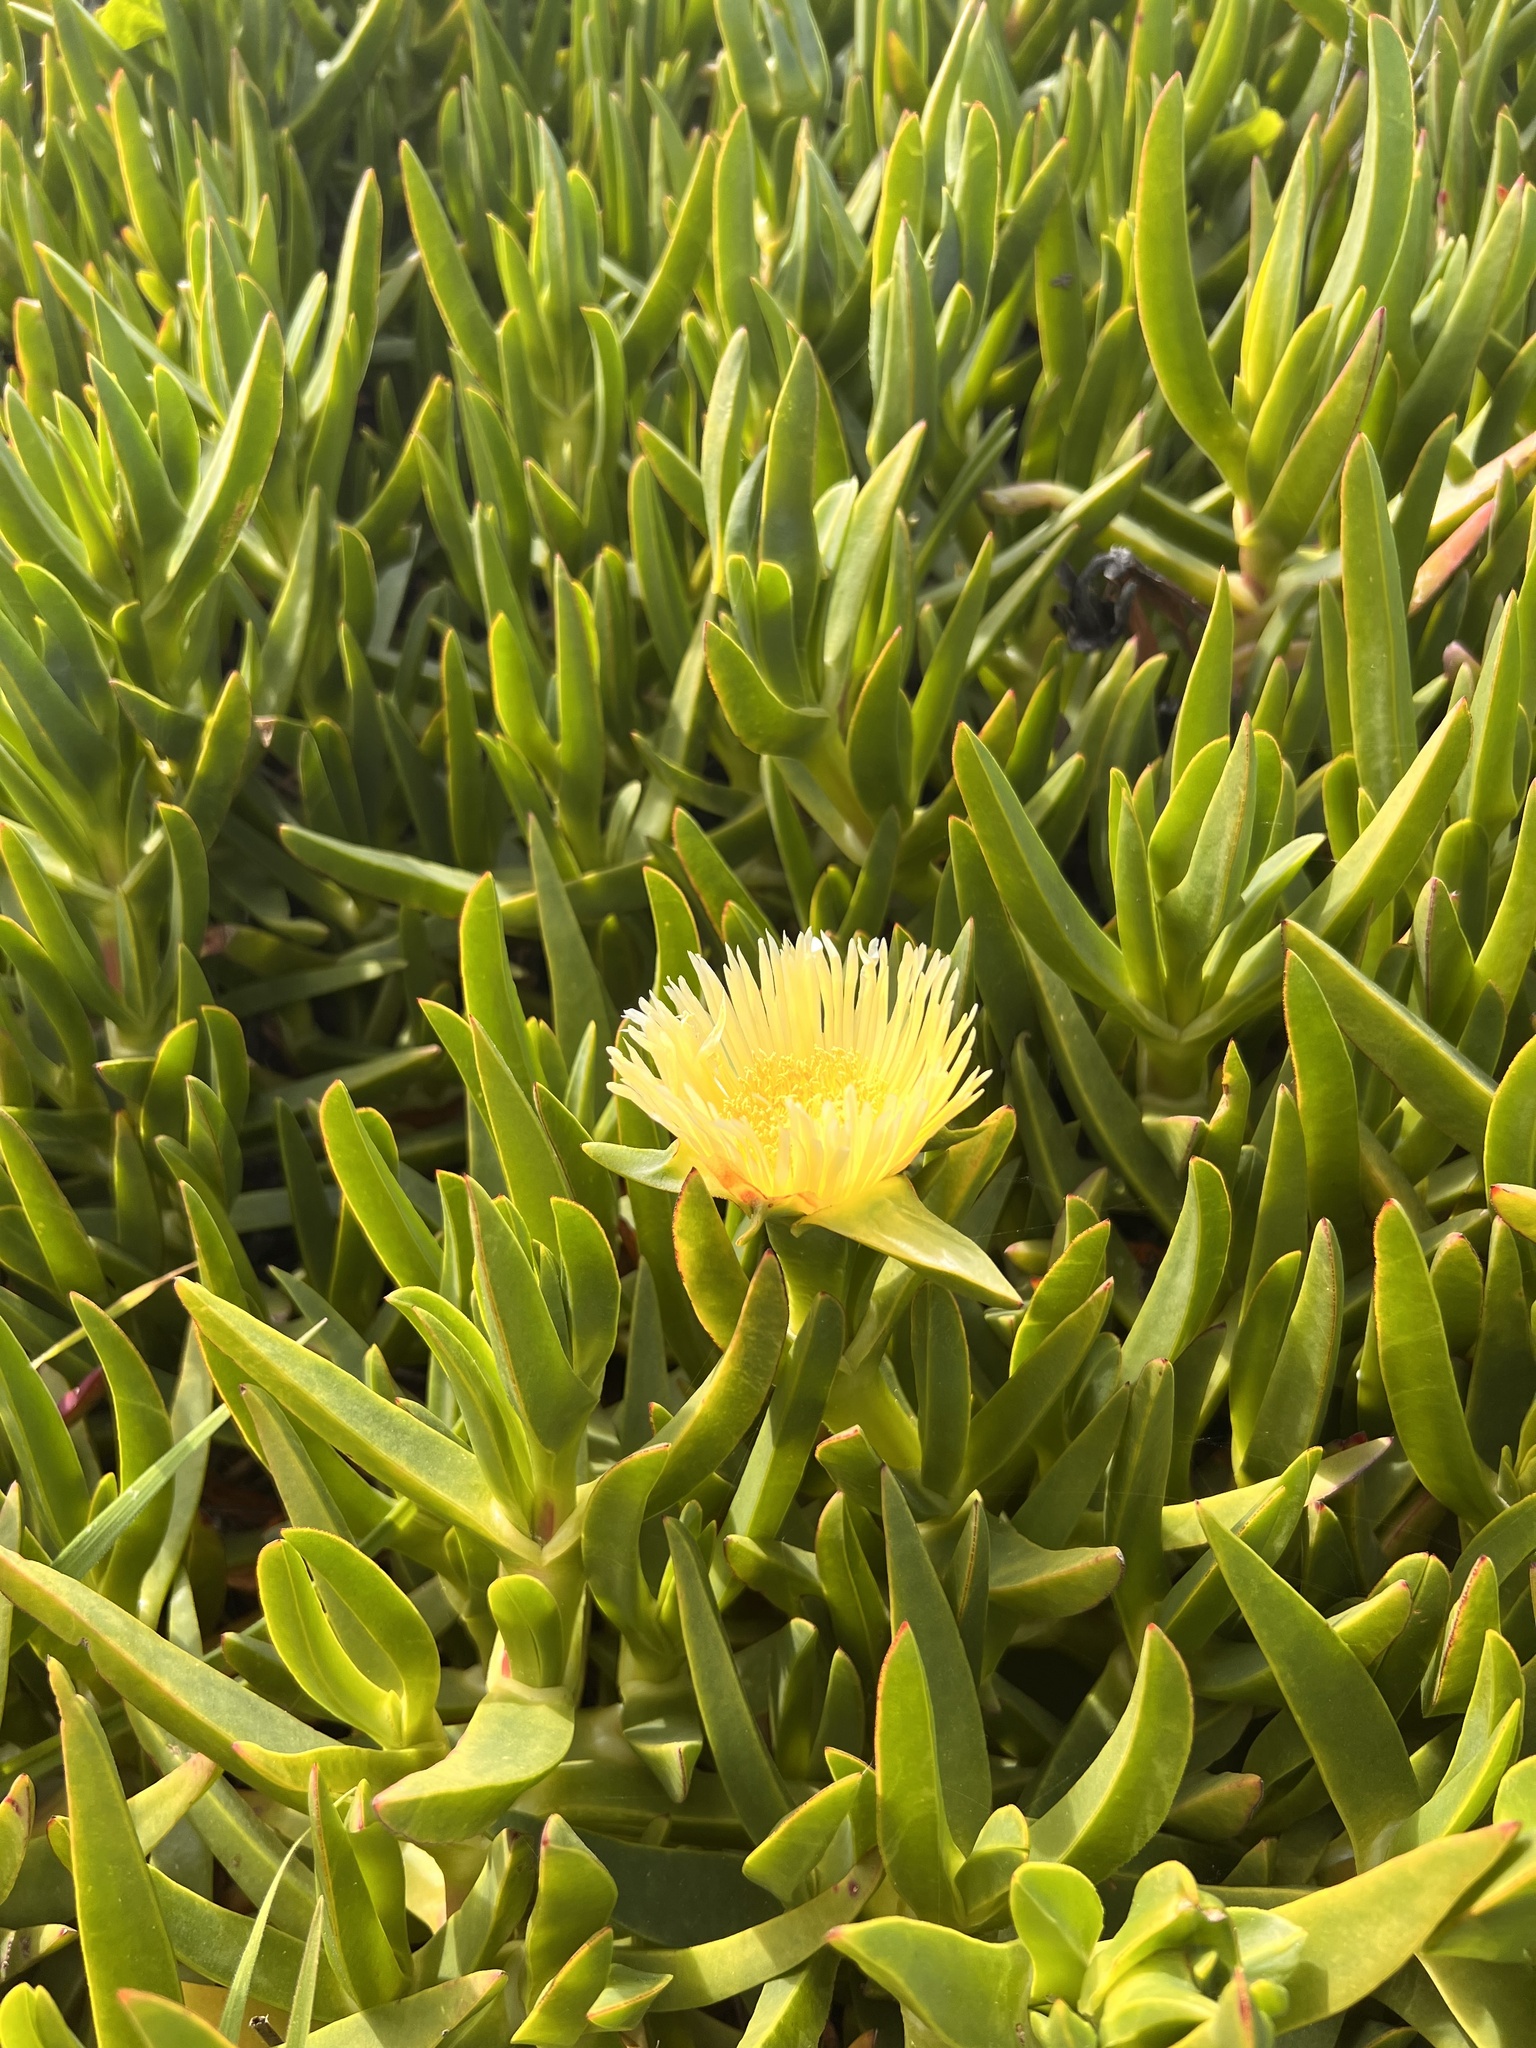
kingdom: Plantae
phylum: Tracheophyta
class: Magnoliopsida
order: Caryophyllales
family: Aizoaceae
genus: Carpobrotus
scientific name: Carpobrotus edulis
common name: Hottentot-fig
